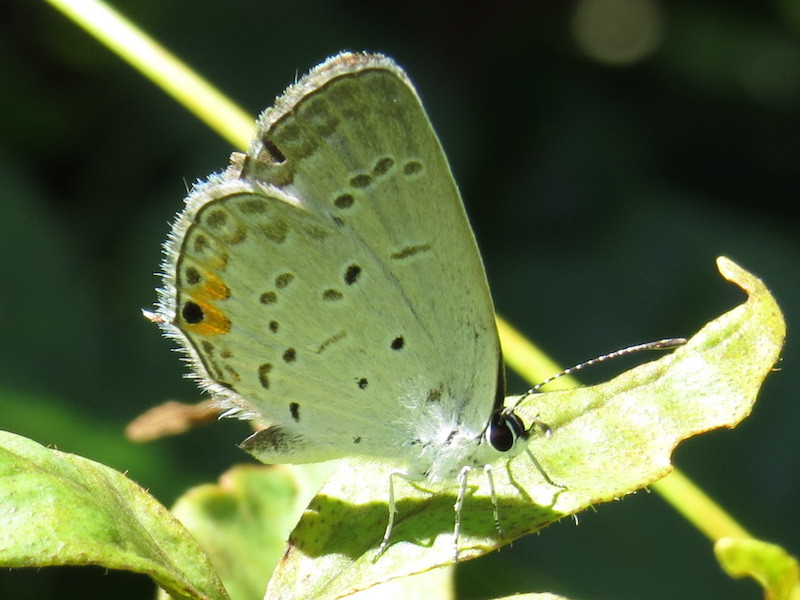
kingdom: Animalia
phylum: Arthropoda
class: Insecta
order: Lepidoptera
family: Lycaenidae
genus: Elkalyce
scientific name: Elkalyce comyntas
